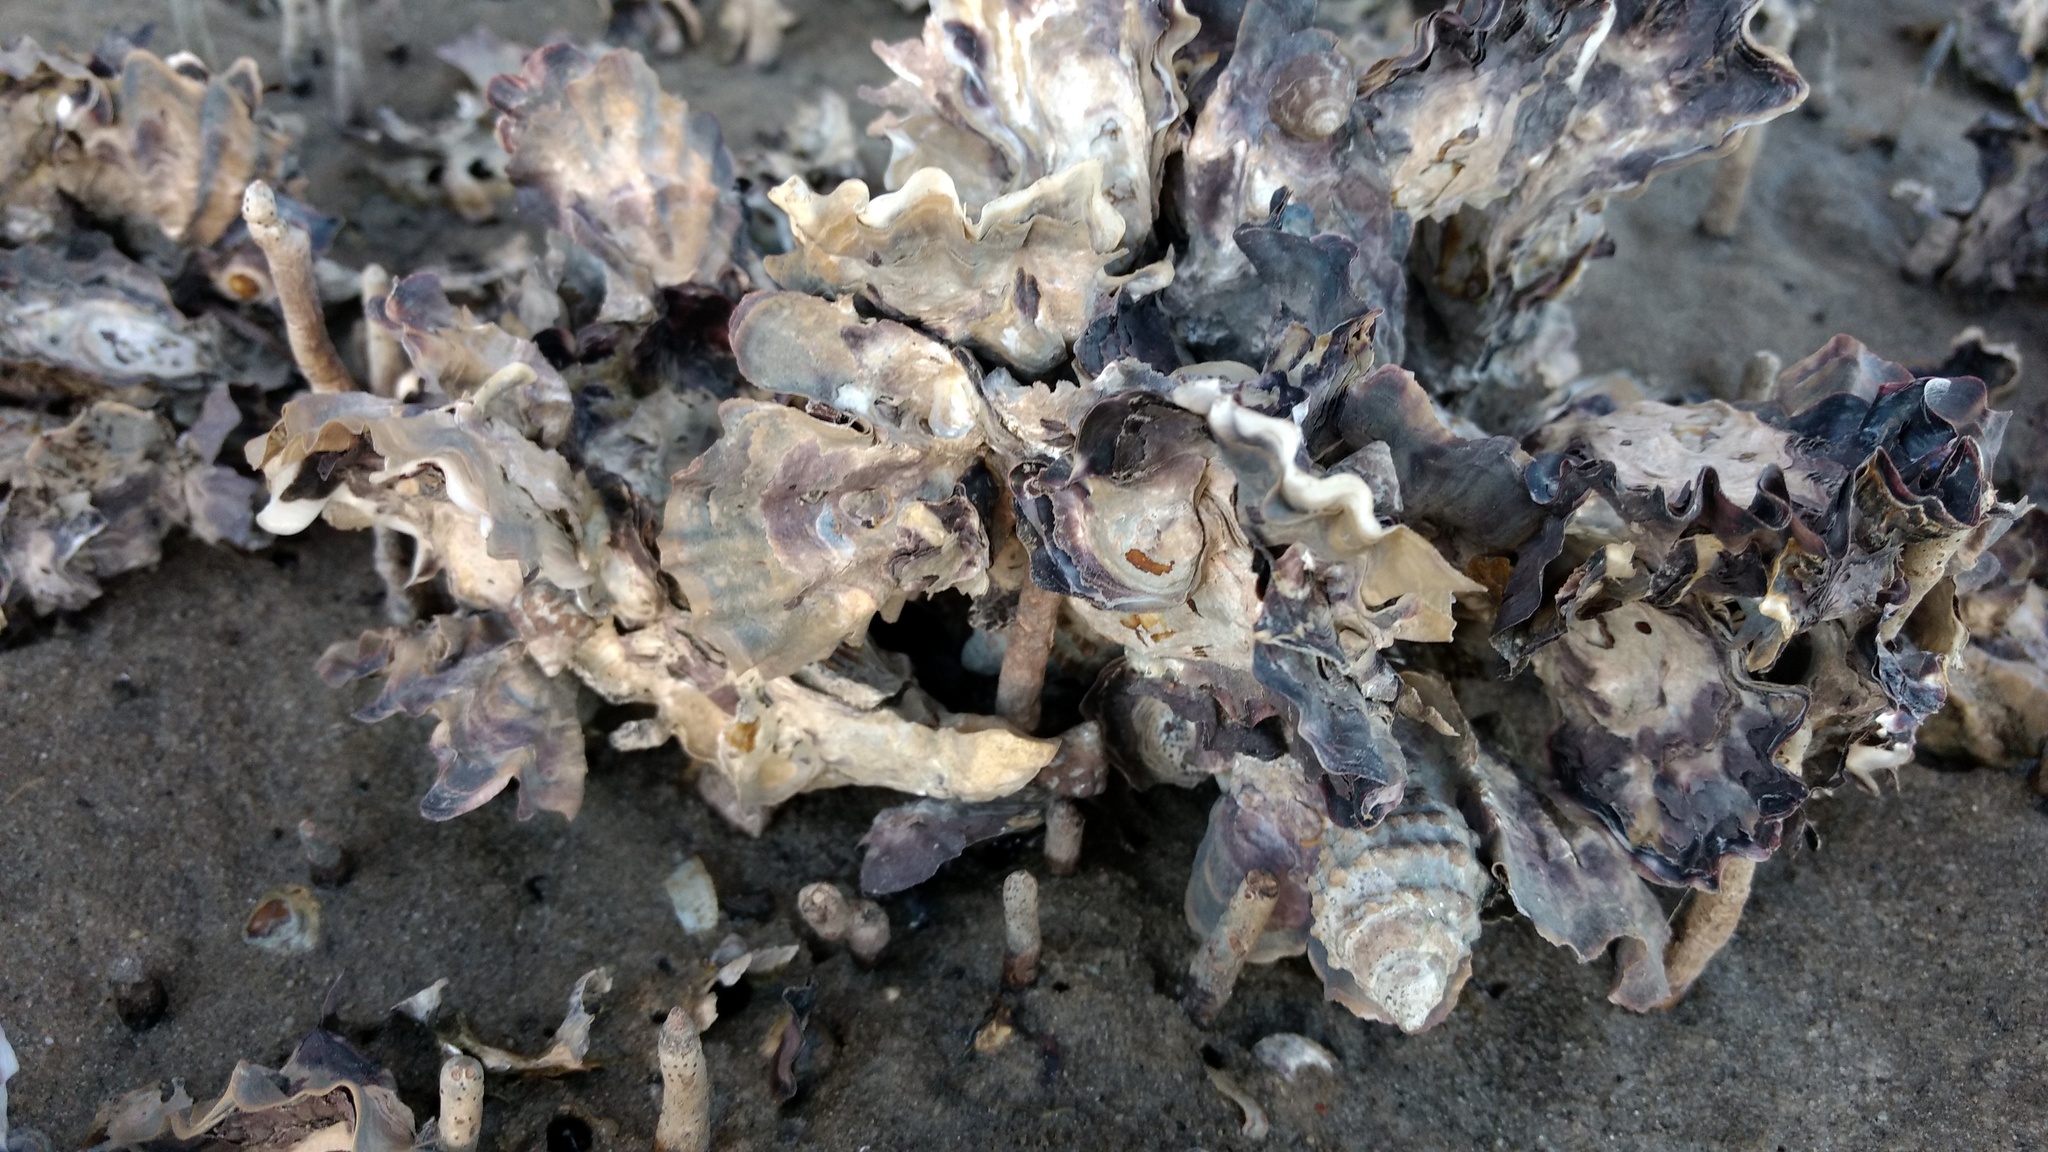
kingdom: Animalia
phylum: Mollusca
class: Bivalvia
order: Ostreida
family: Ostreidae
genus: Saccostrea
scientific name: Saccostrea glomerata
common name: Sydney cupped oyster
